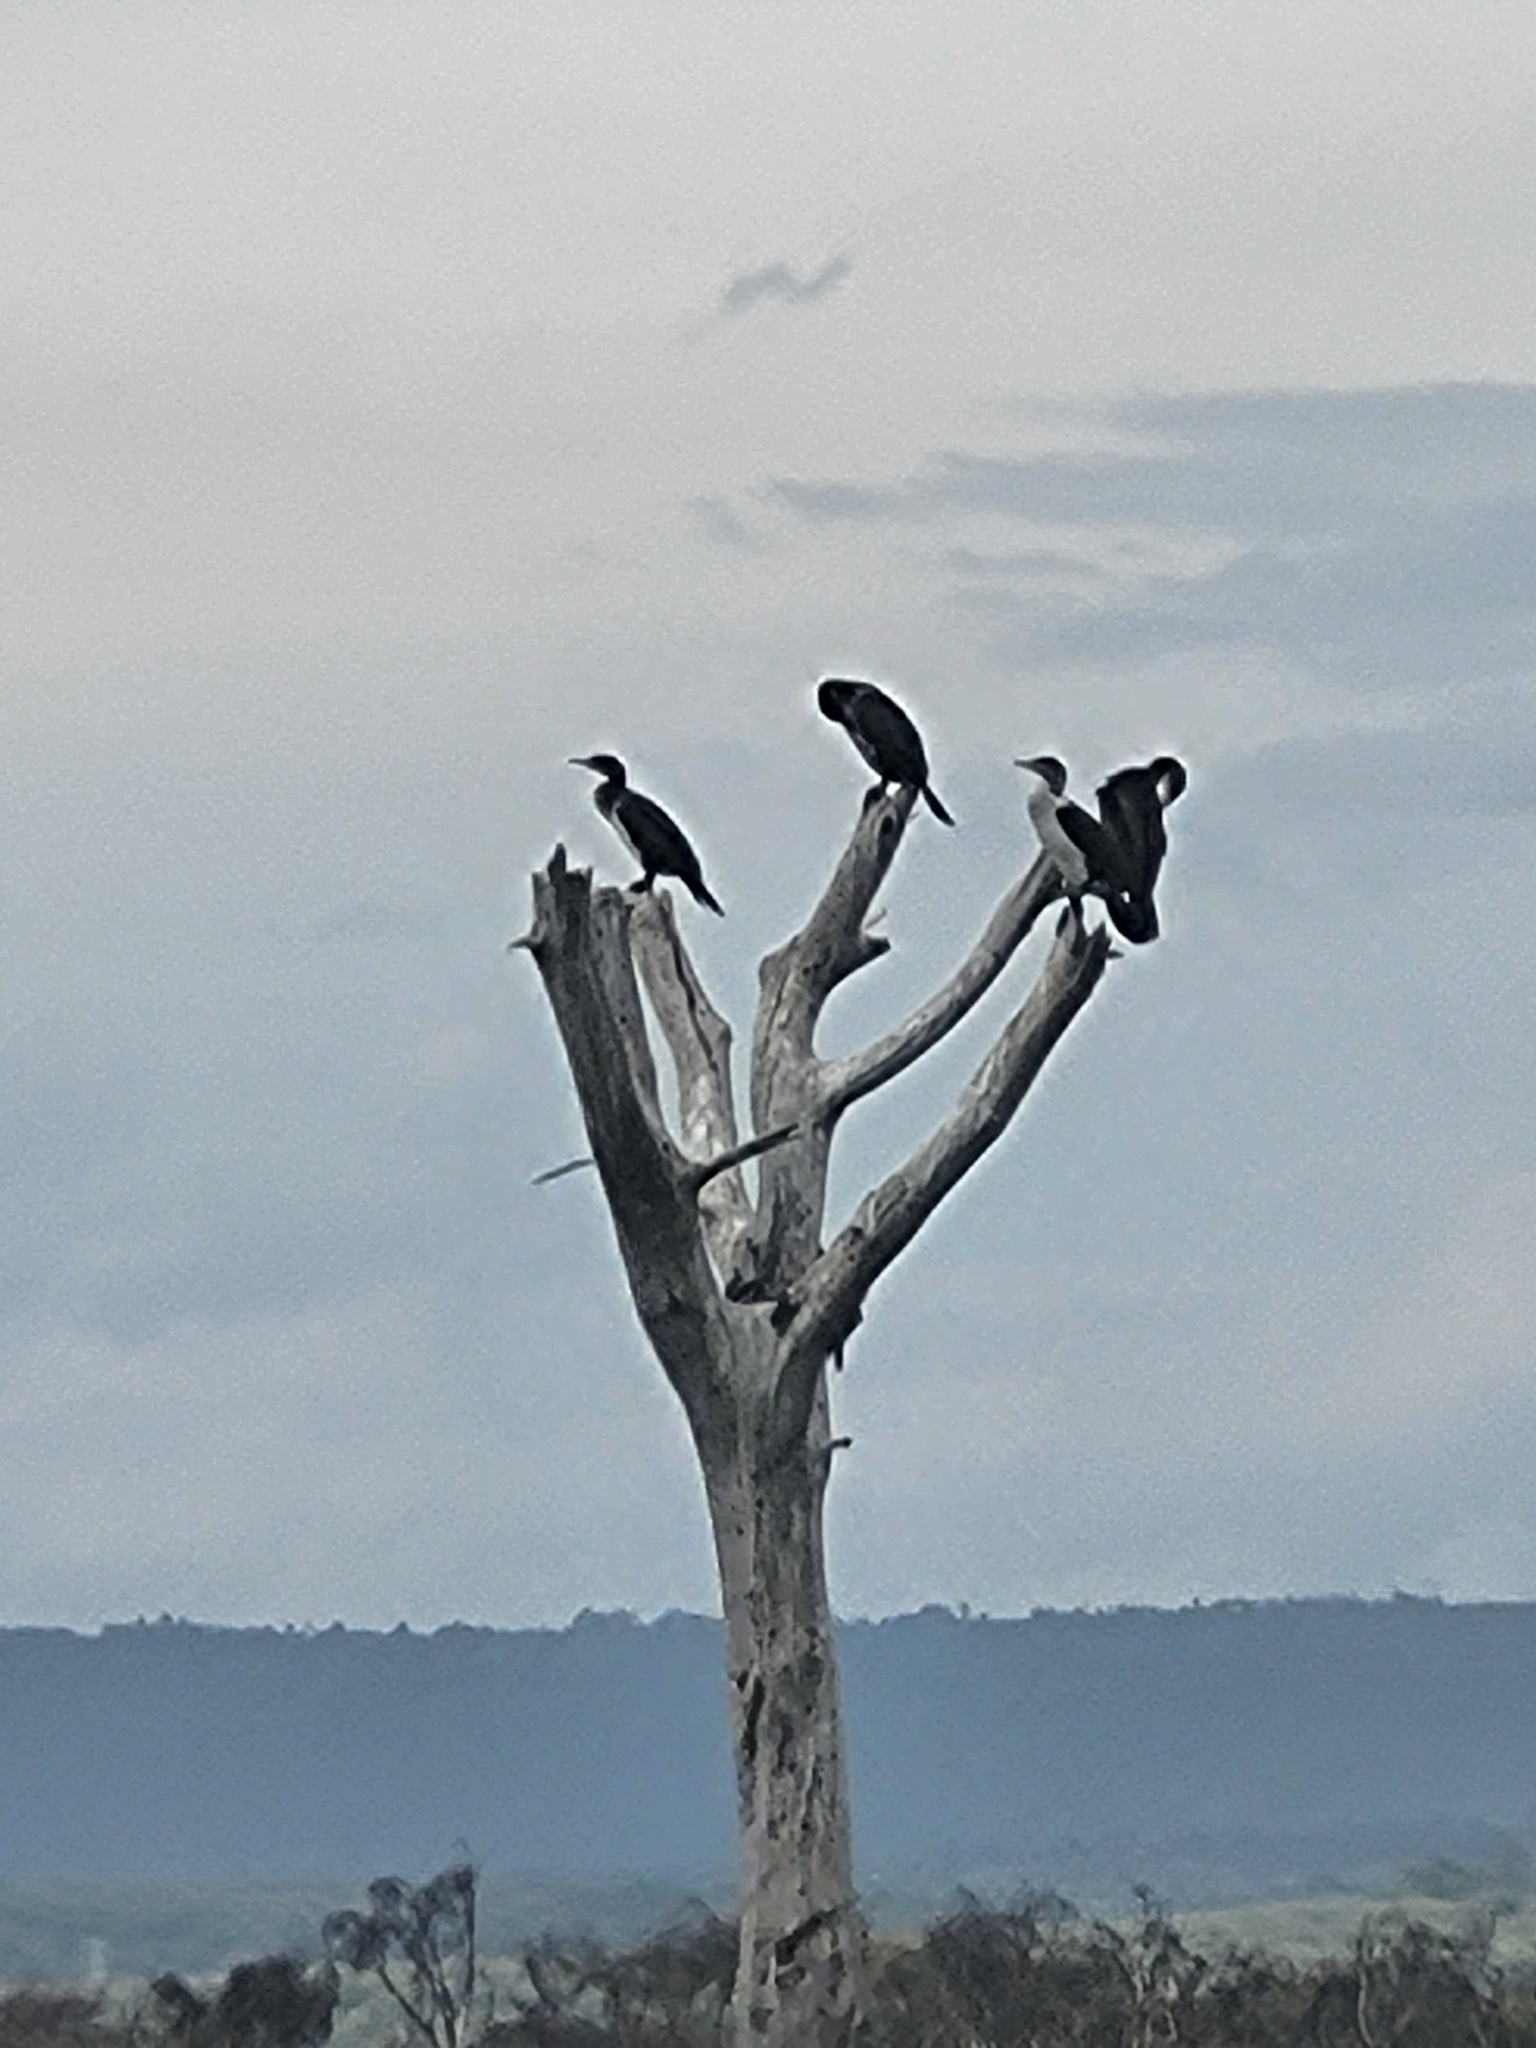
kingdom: Animalia
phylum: Chordata
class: Aves
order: Suliformes
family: Phalacrocoracidae
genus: Phalacrocorax
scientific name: Phalacrocorax carbo
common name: Great cormorant
